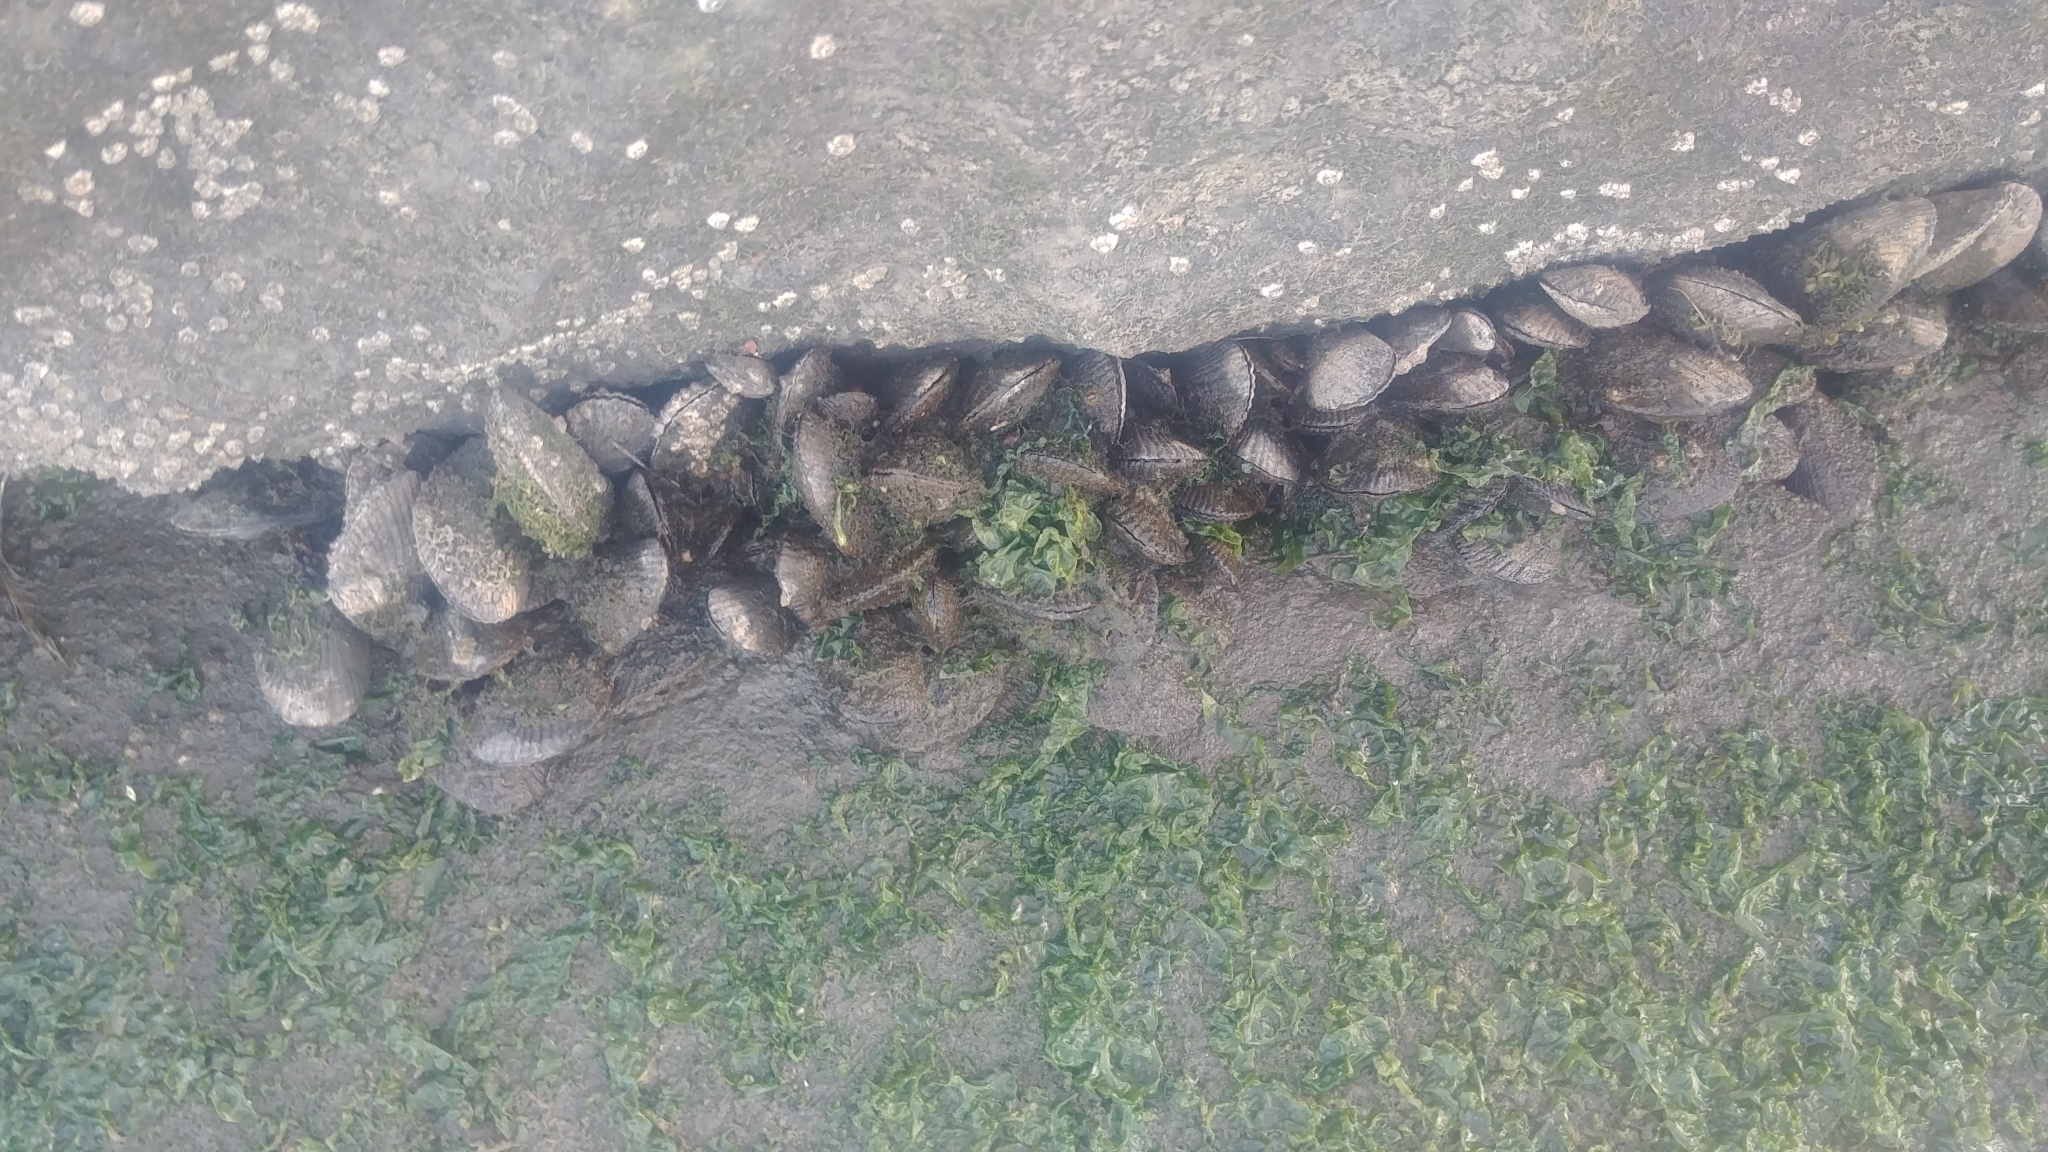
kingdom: Animalia
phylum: Mollusca
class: Bivalvia
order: Mytilida
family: Mytilidae
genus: Geukensia
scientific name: Geukensia demissa
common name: Ribbed mussel
